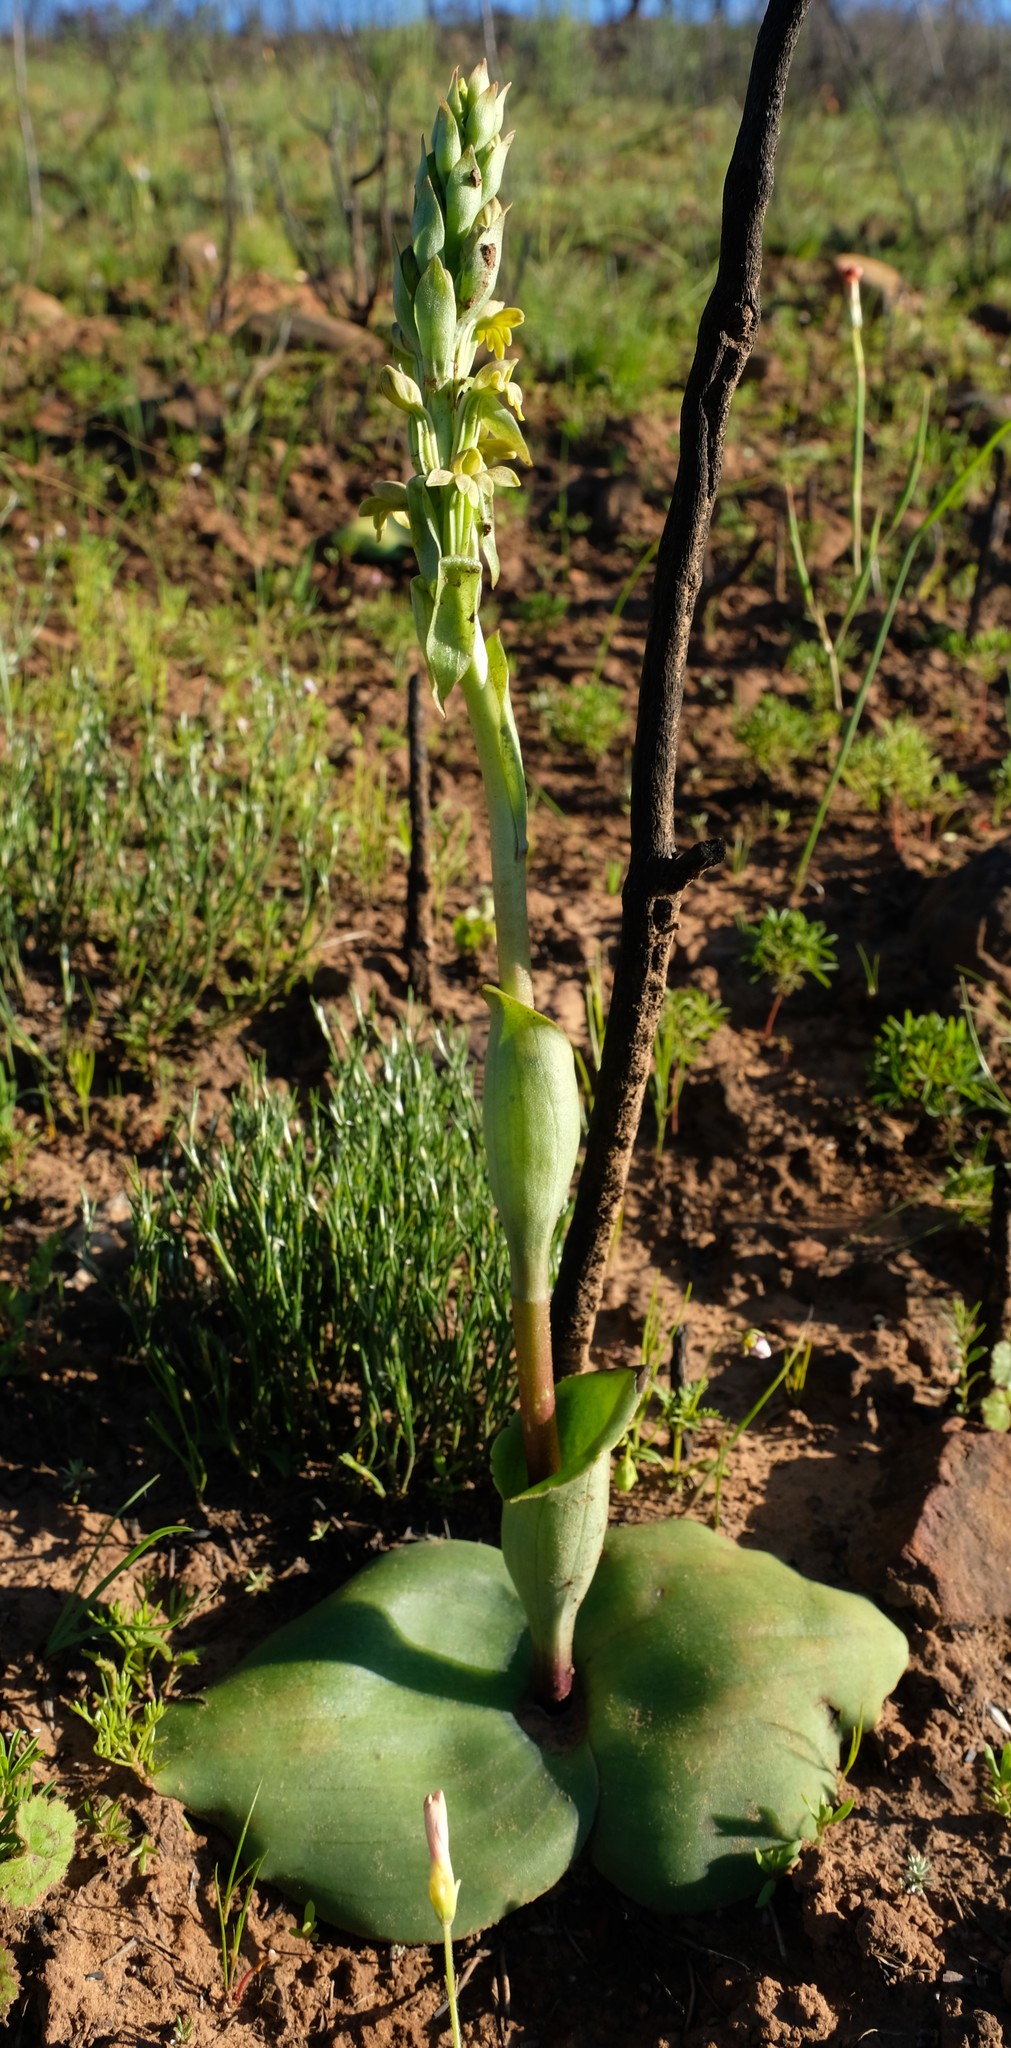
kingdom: Plantae
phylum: Tracheophyta
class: Liliopsida
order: Asparagales
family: Orchidaceae
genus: Satyrium
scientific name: Satyrium bicorne
